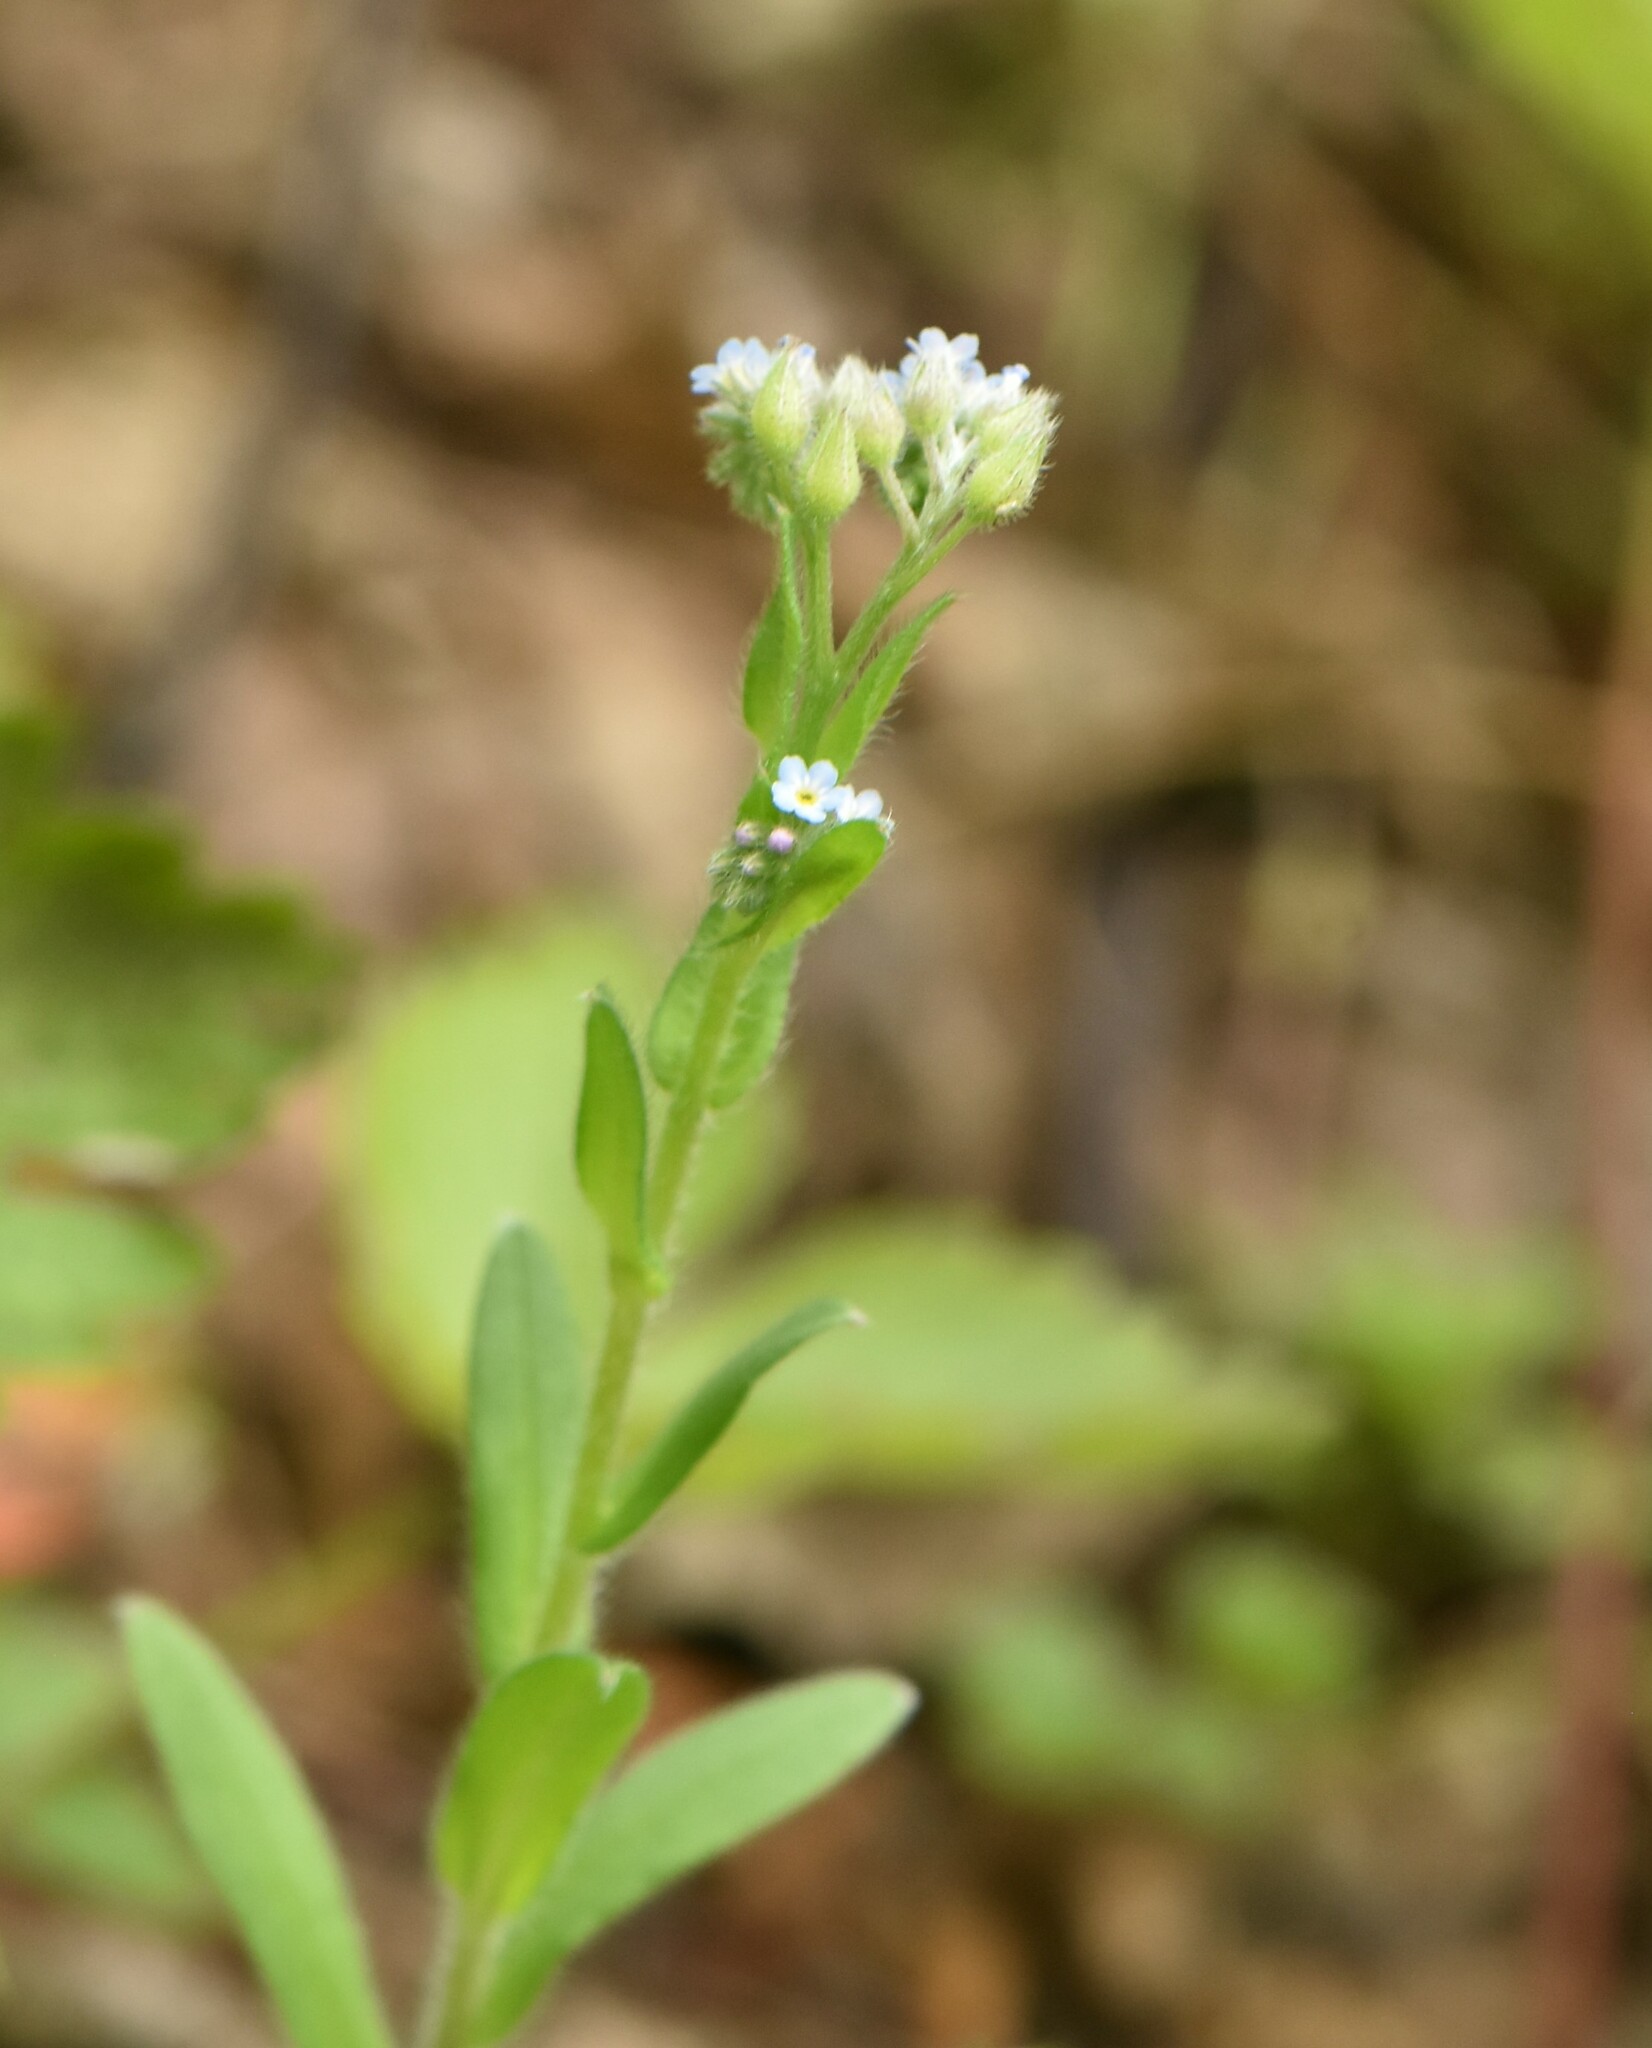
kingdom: Plantae
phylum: Tracheophyta
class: Magnoliopsida
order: Boraginales
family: Boraginaceae
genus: Myosotis
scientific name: Myosotis arvensis
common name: Field forget-me-not
